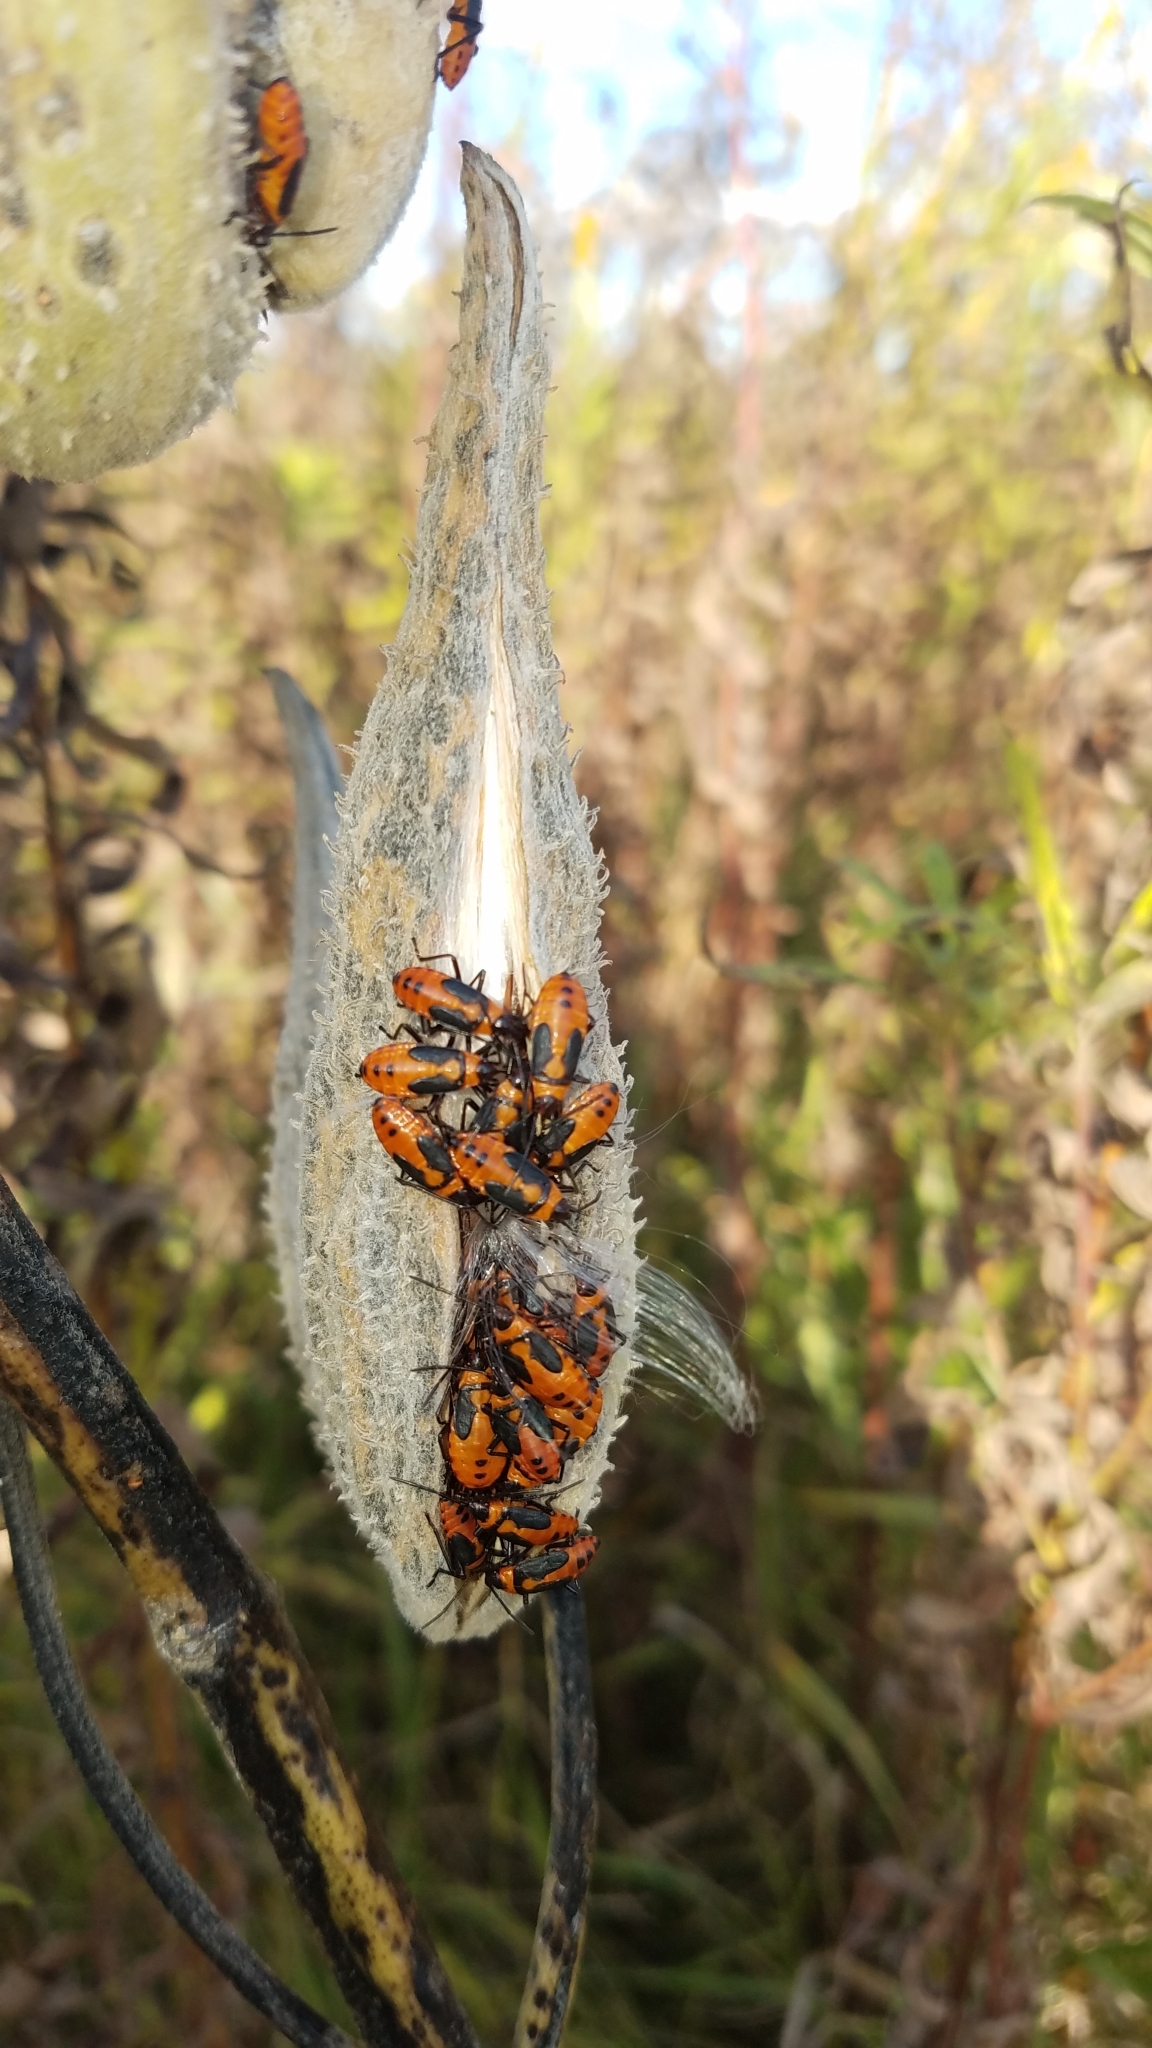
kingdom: Animalia
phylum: Arthropoda
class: Insecta
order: Hemiptera
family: Lygaeidae
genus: Oncopeltus
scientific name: Oncopeltus fasciatus
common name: Large milkweed bug
